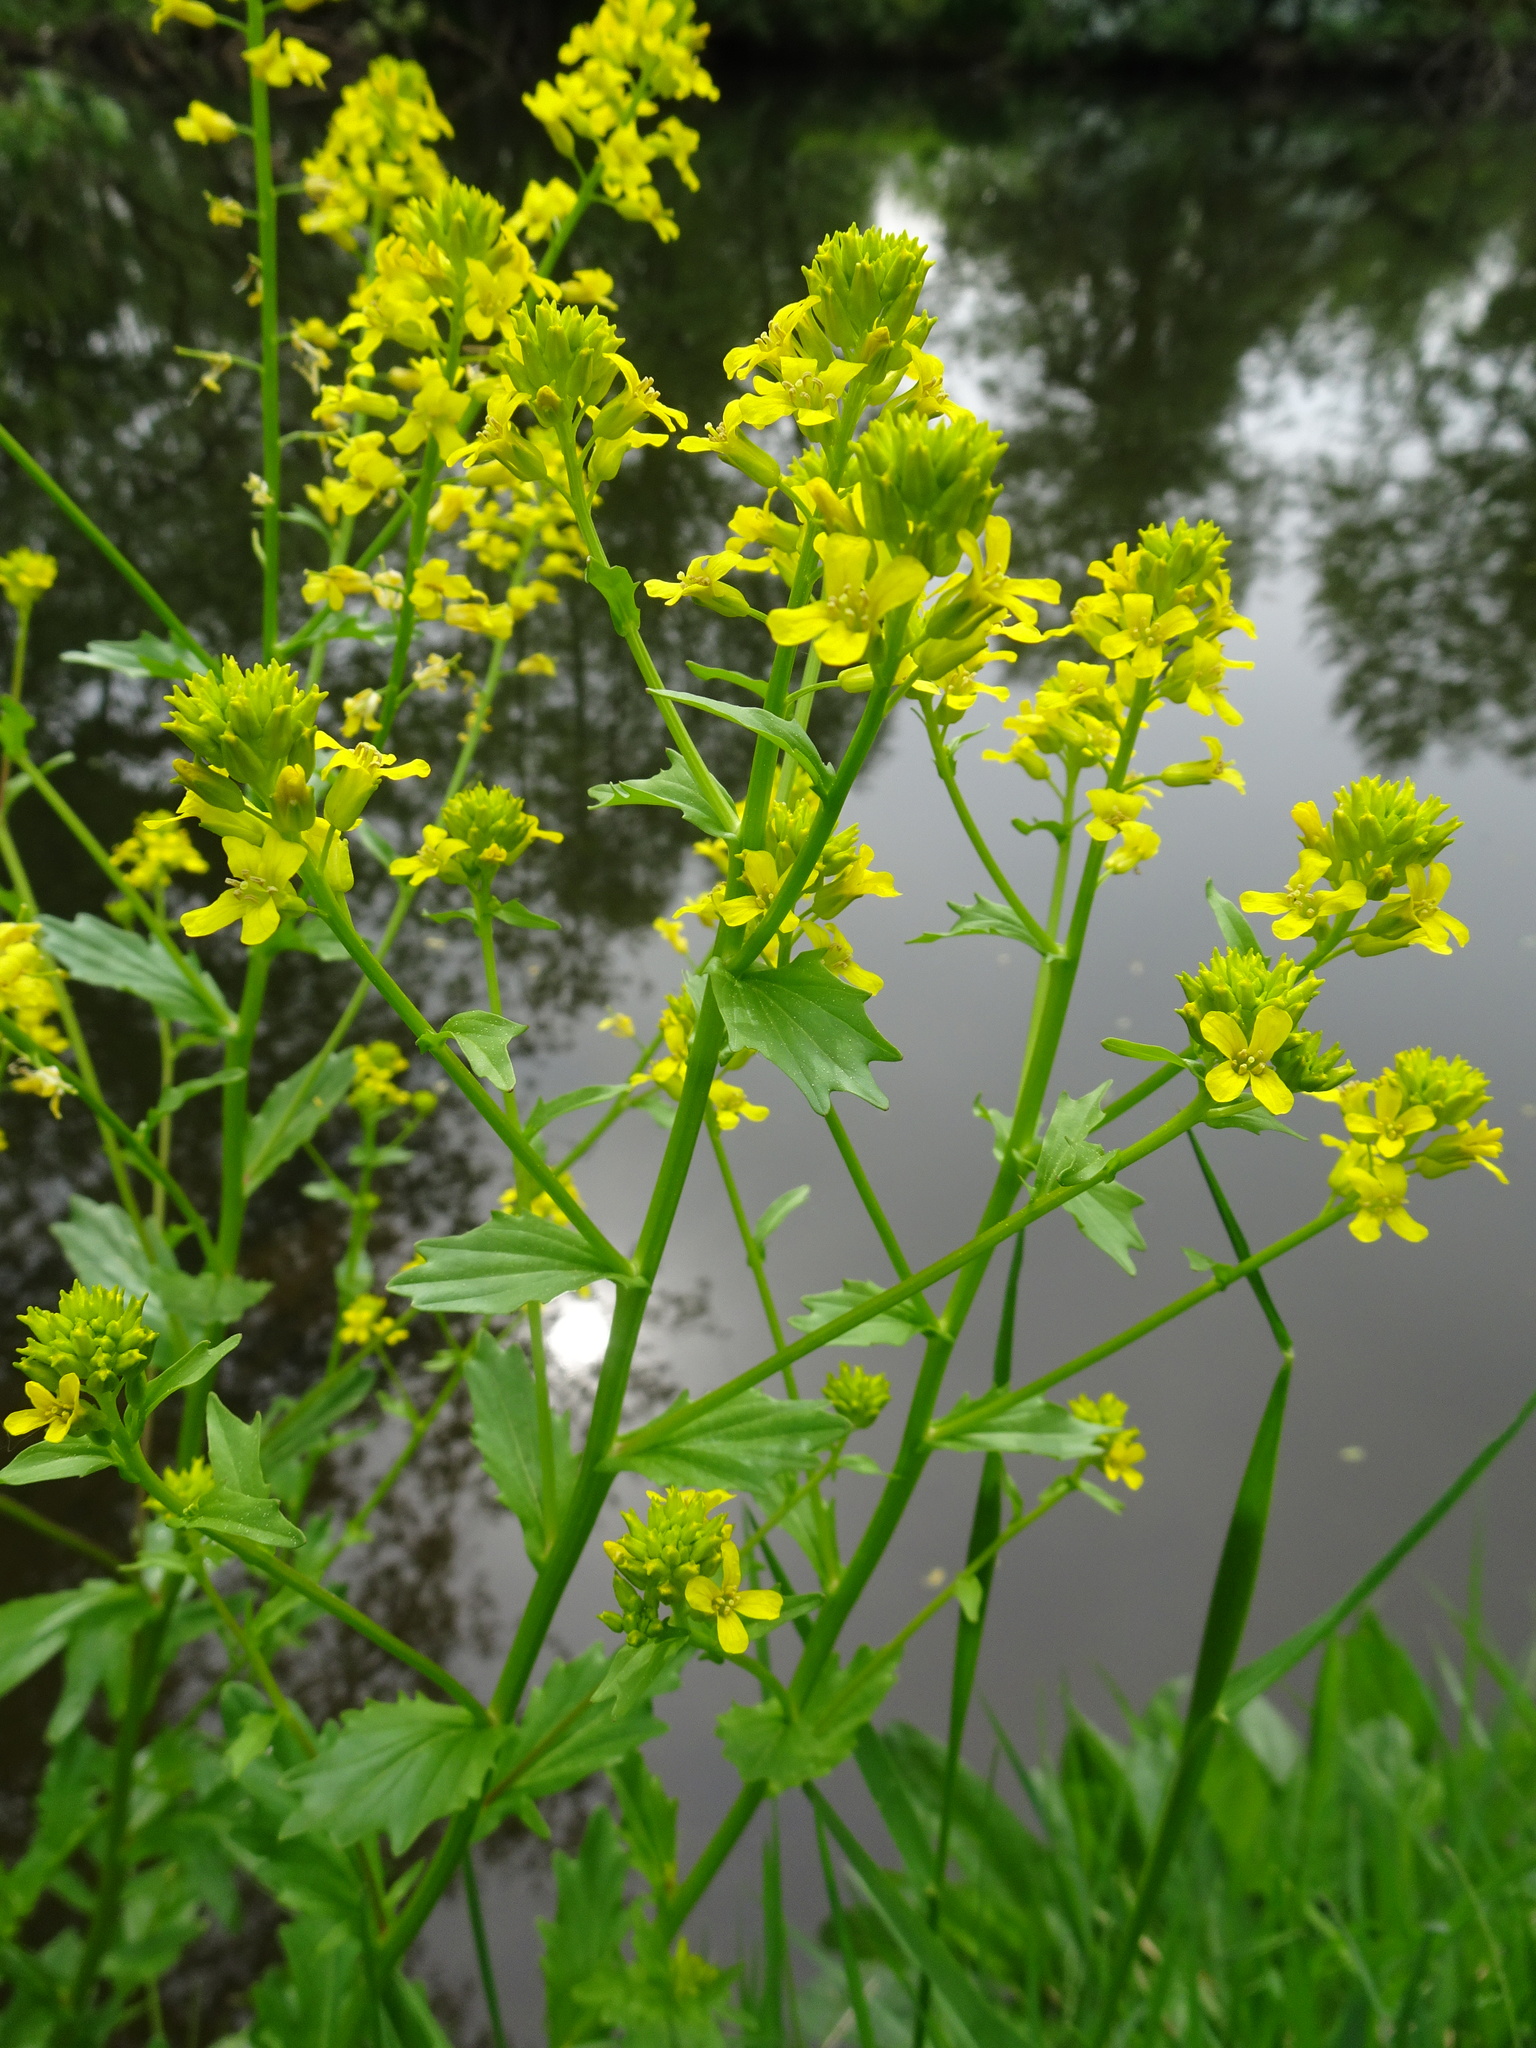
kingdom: Plantae
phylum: Tracheophyta
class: Magnoliopsida
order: Brassicales
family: Brassicaceae
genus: Barbarea
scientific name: Barbarea vulgaris
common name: Cressy-greens
